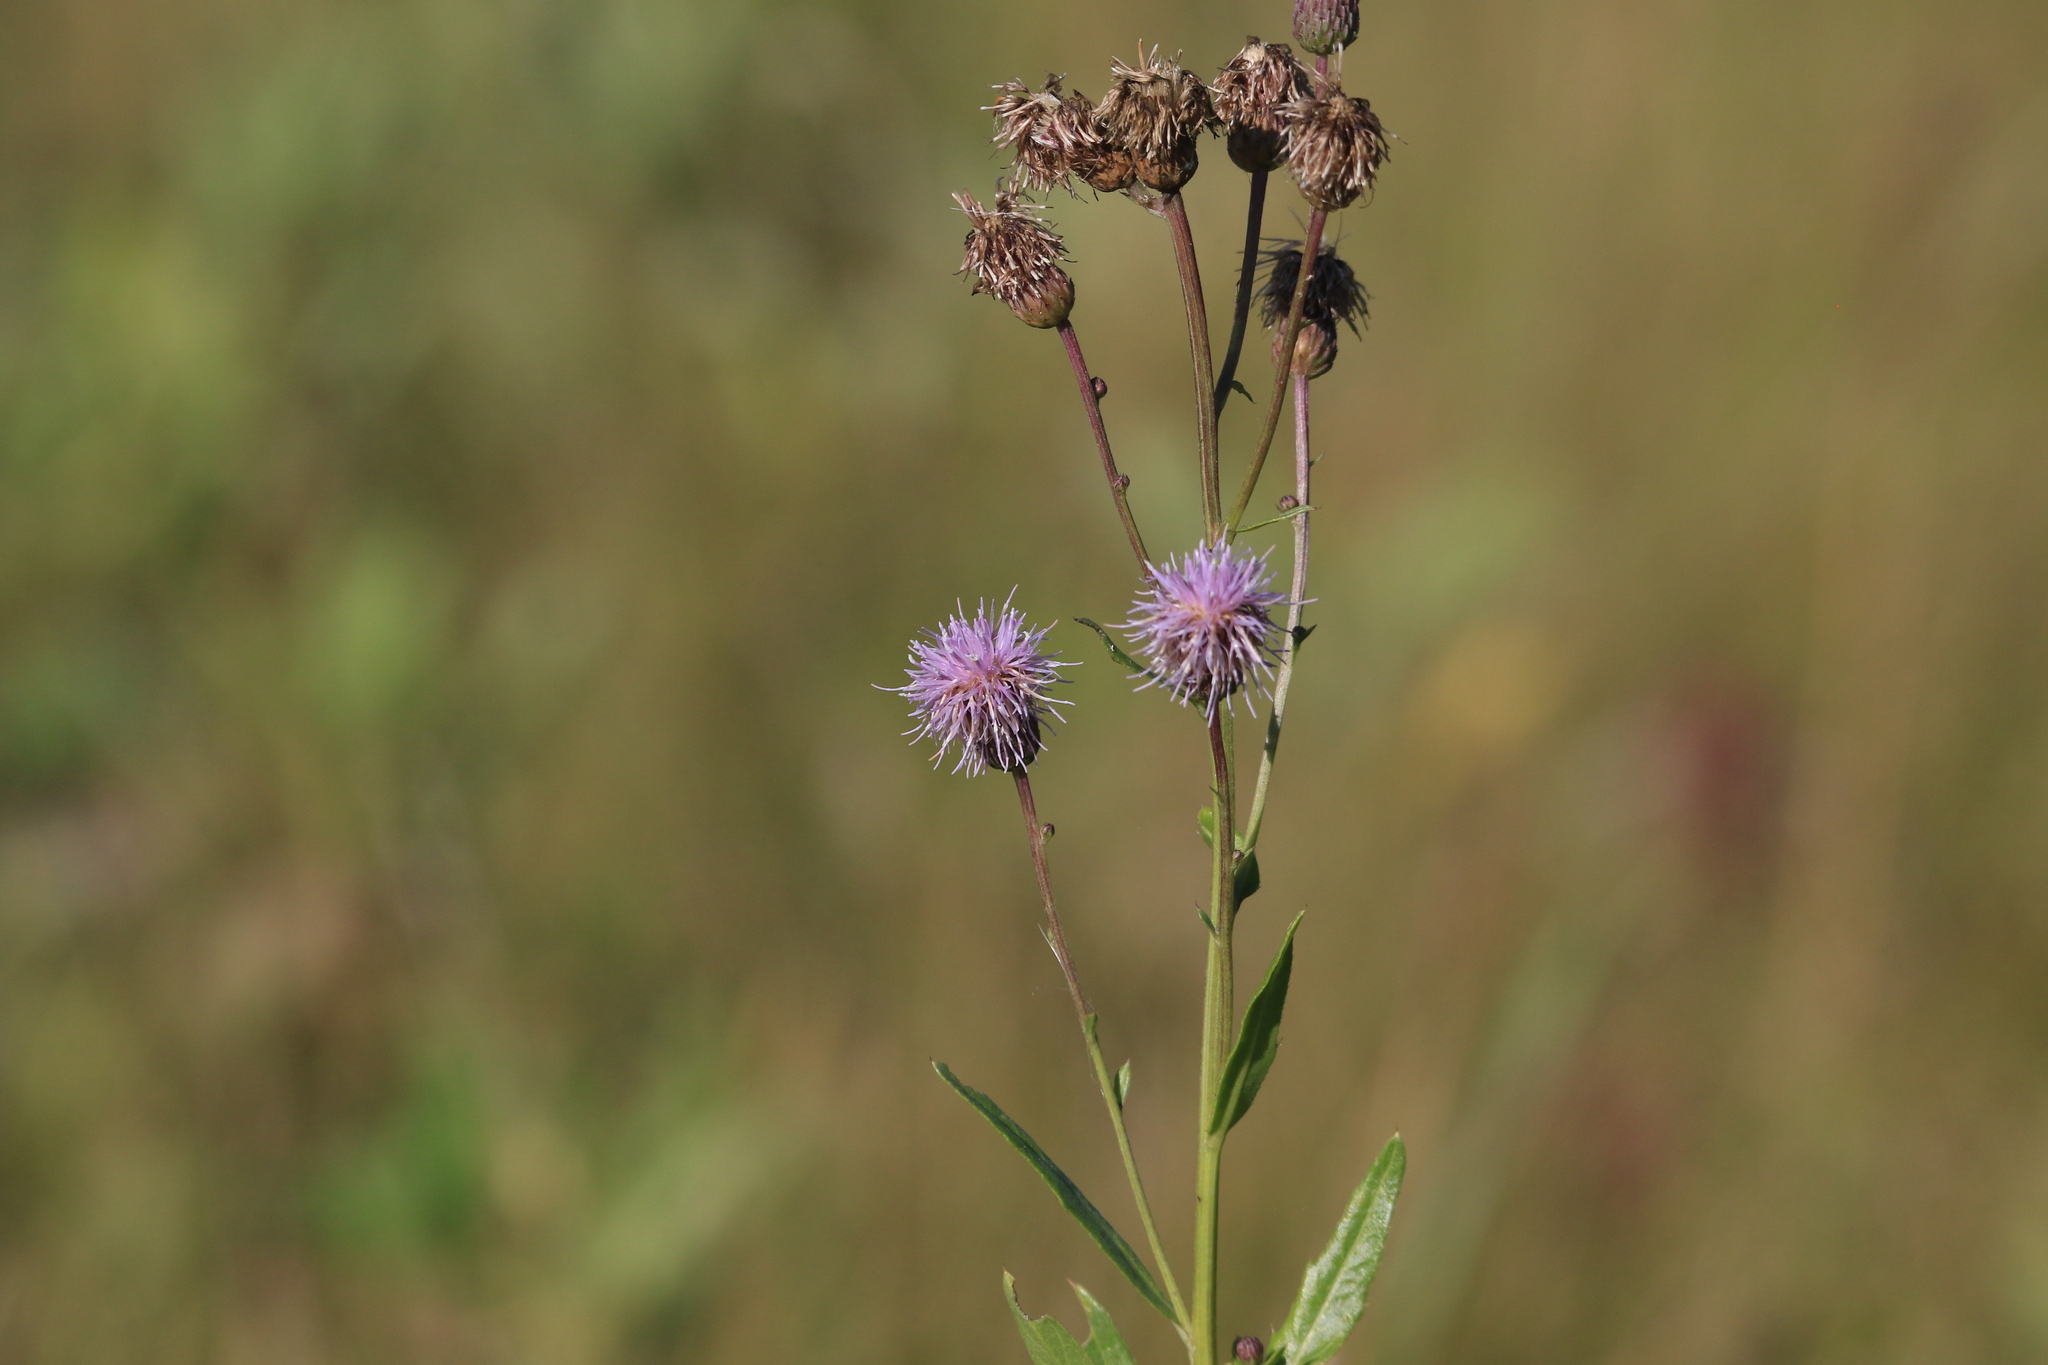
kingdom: Plantae
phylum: Tracheophyta
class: Magnoliopsida
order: Asterales
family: Asteraceae
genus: Cirsium
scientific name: Cirsium arvense
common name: Creeping thistle
